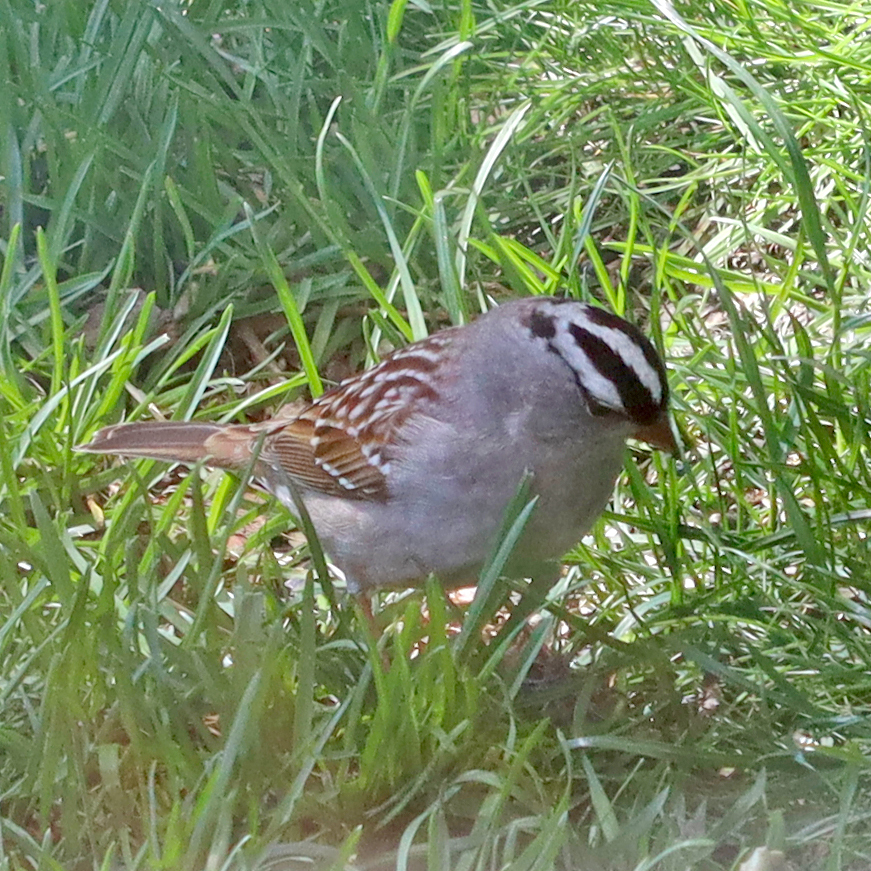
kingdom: Animalia
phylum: Chordata
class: Aves
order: Passeriformes
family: Passerellidae
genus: Zonotrichia
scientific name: Zonotrichia leucophrys
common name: White-crowned sparrow
